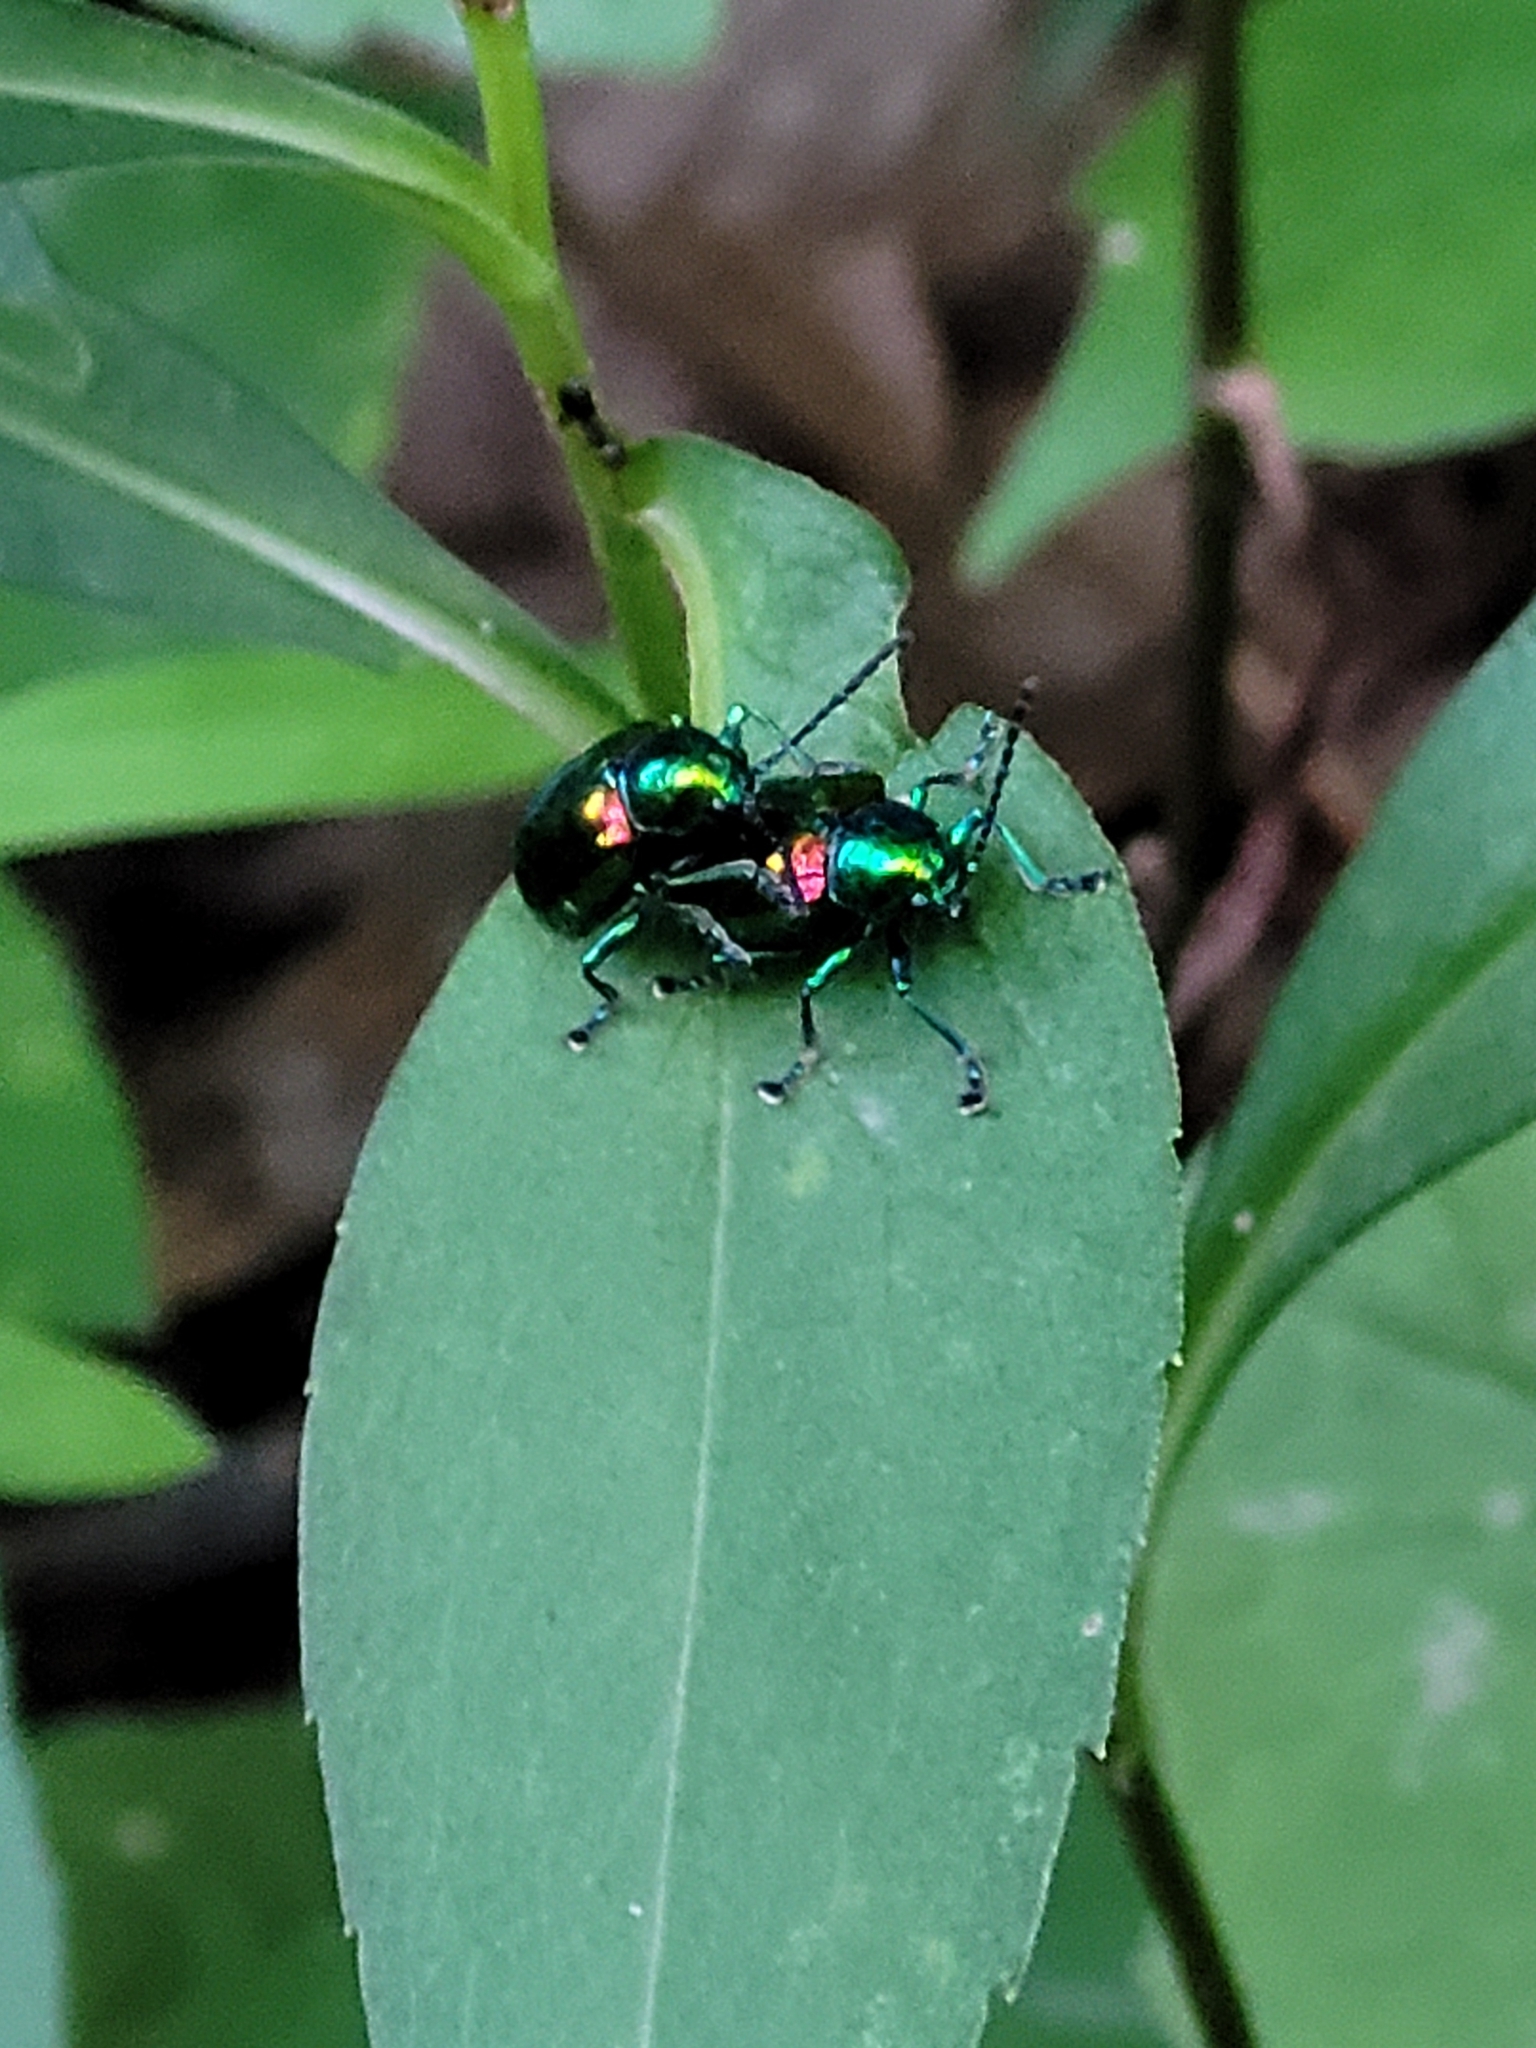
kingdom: Animalia
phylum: Arthropoda
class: Insecta
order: Coleoptera
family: Chrysomelidae
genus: Chrysochus
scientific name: Chrysochus auratus
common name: Dogbane leaf beetle
